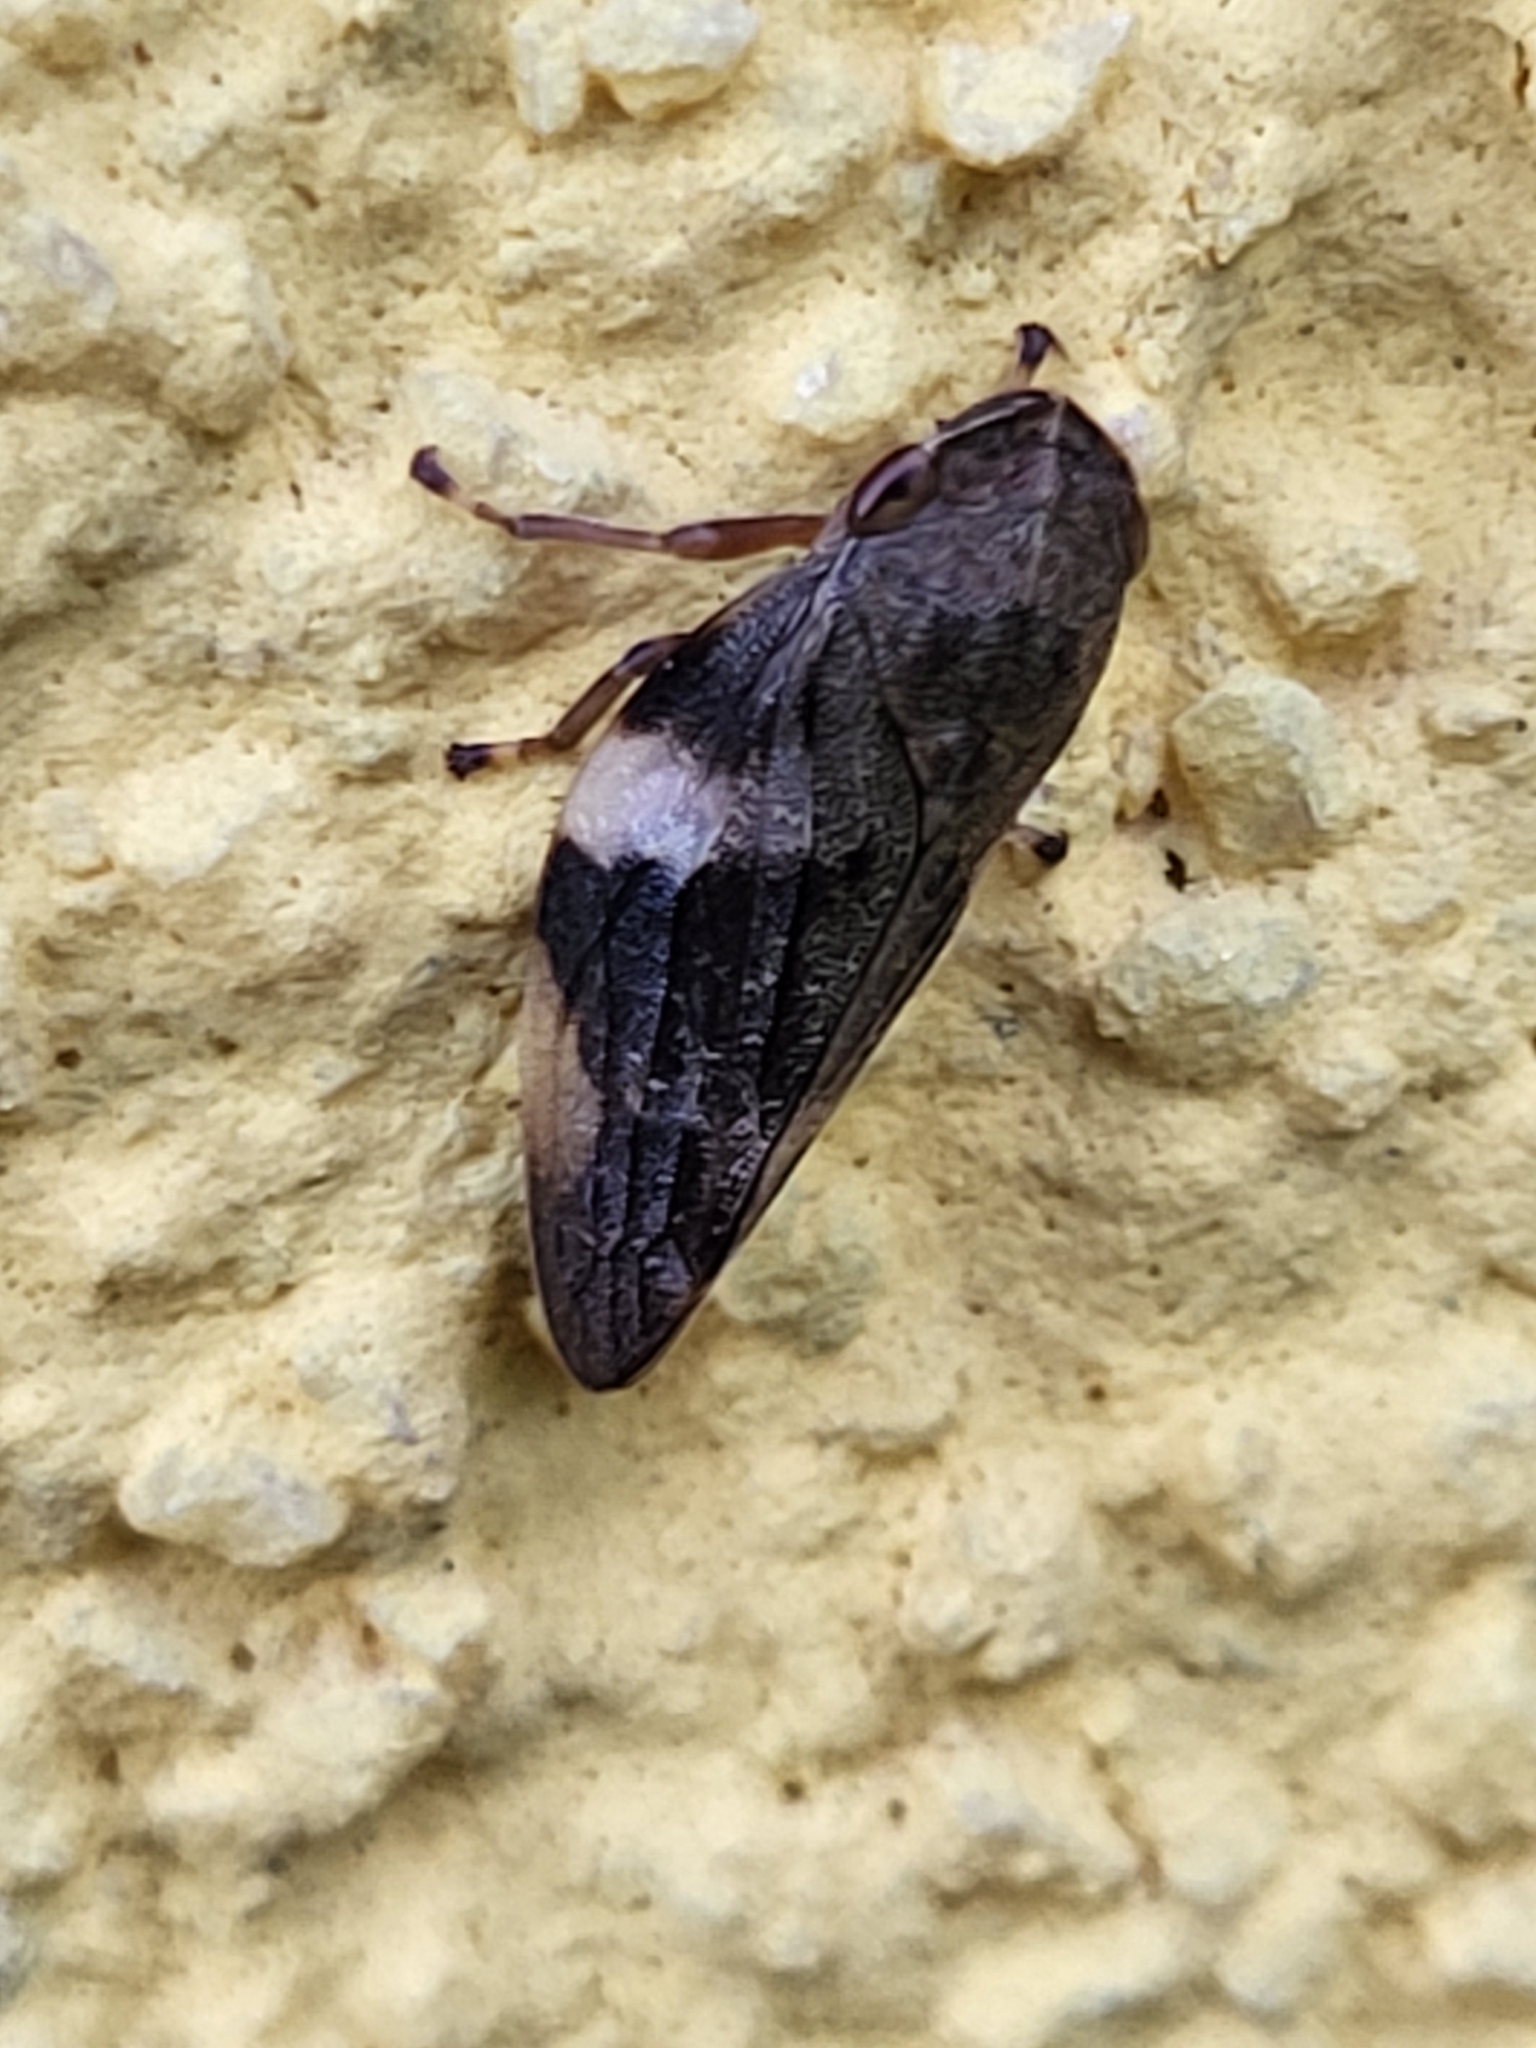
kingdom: Animalia
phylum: Arthropoda
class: Insecta
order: Hemiptera
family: Aphrophoridae
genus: Aphrophora
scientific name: Aphrophora alni
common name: European alder spittlebug
